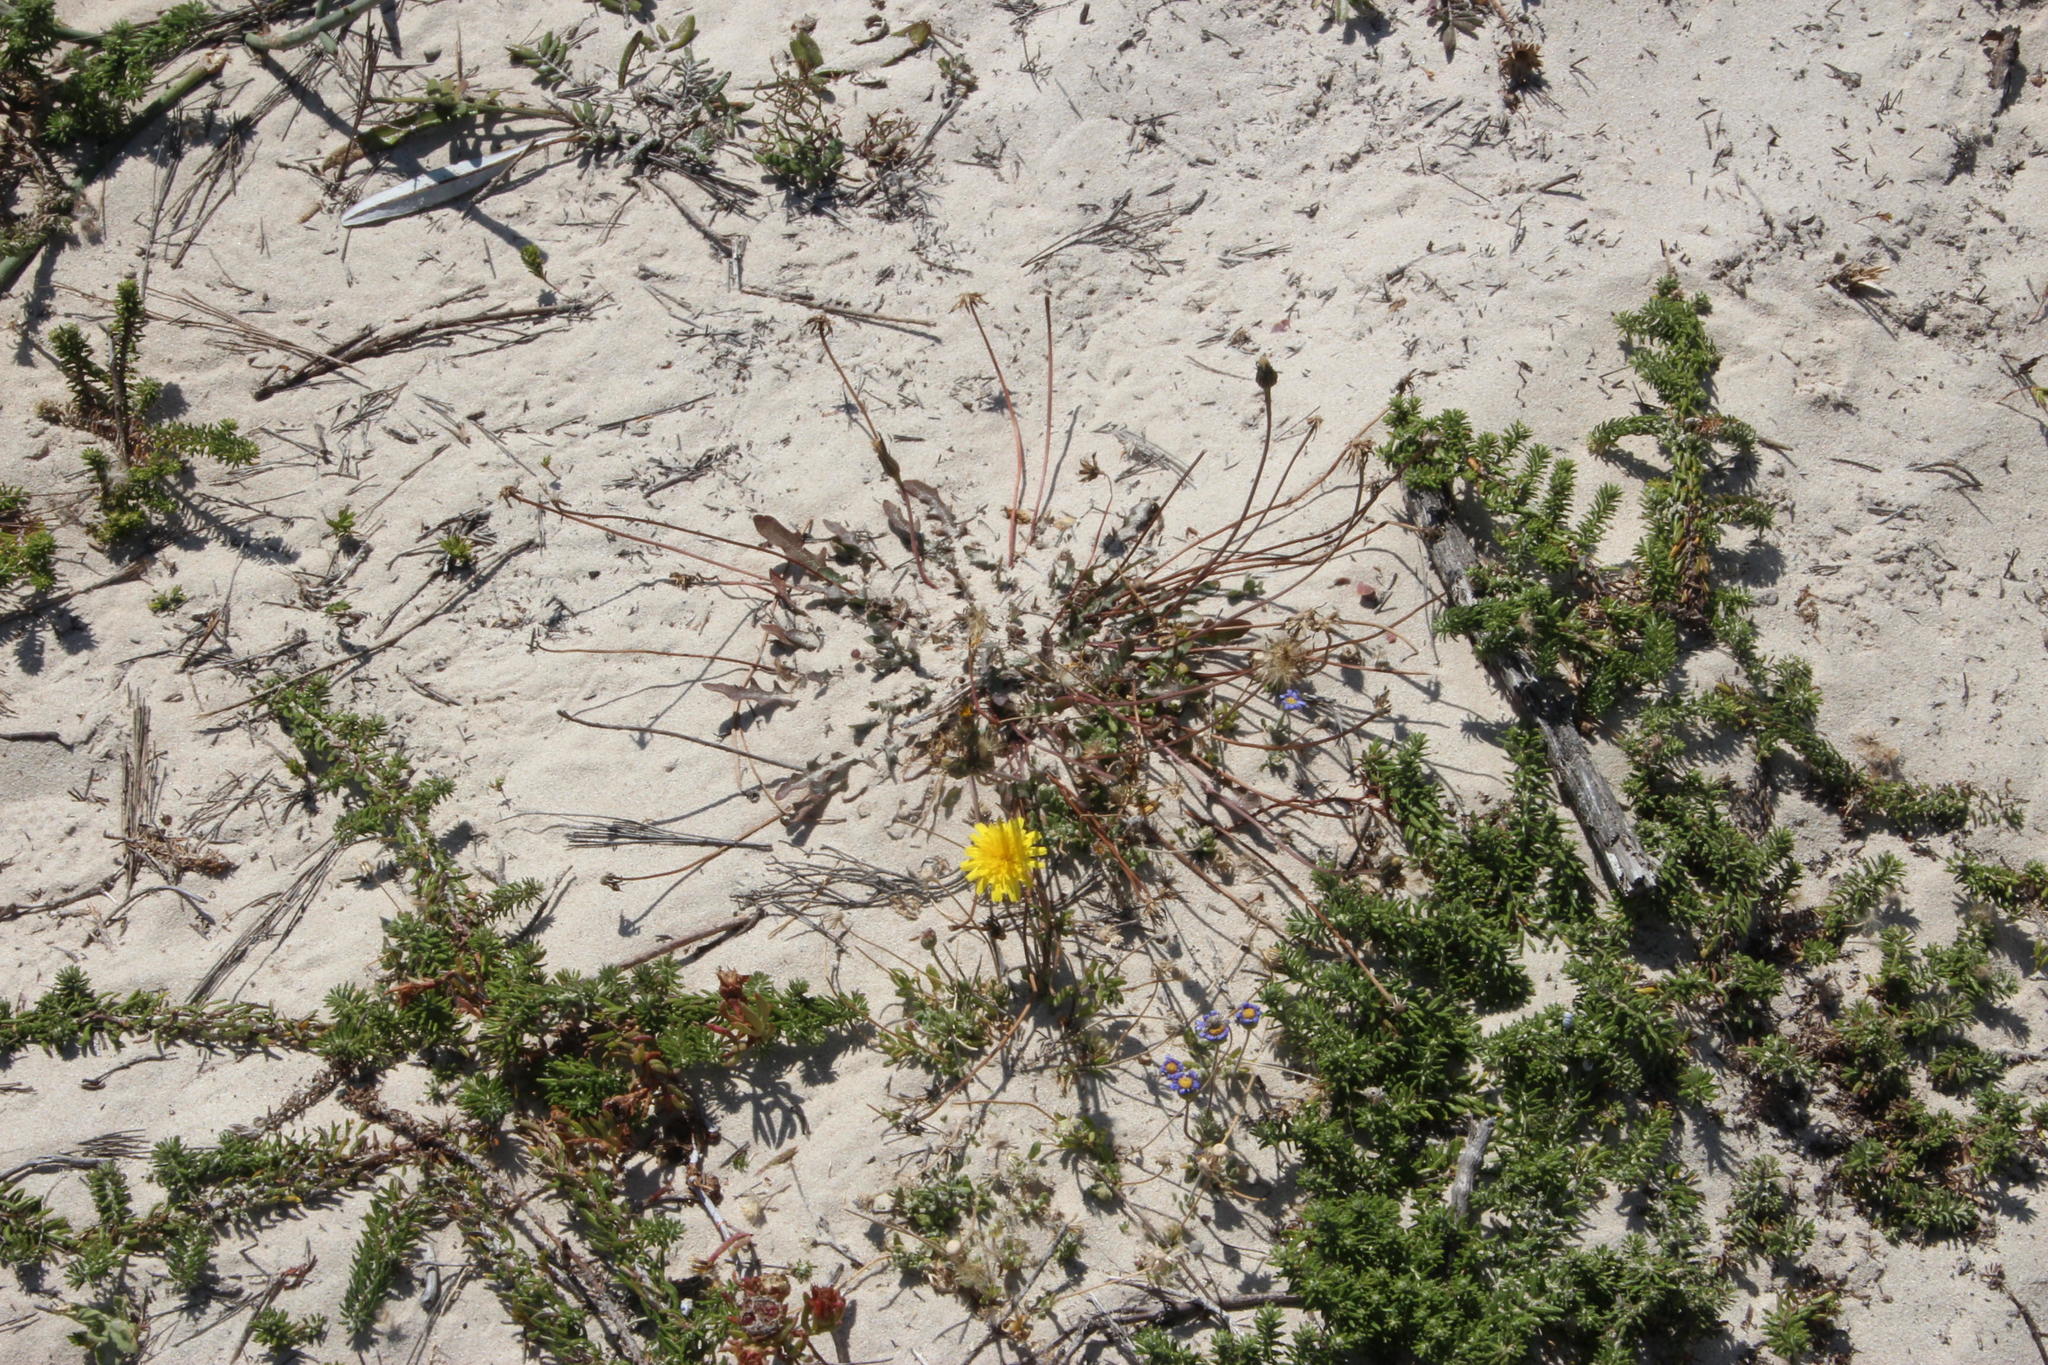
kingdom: Plantae
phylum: Tracheophyta
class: Magnoliopsida
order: Asterales
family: Asteraceae
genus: Hypochaeris
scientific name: Hypochaeris radicata
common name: Flatweed
